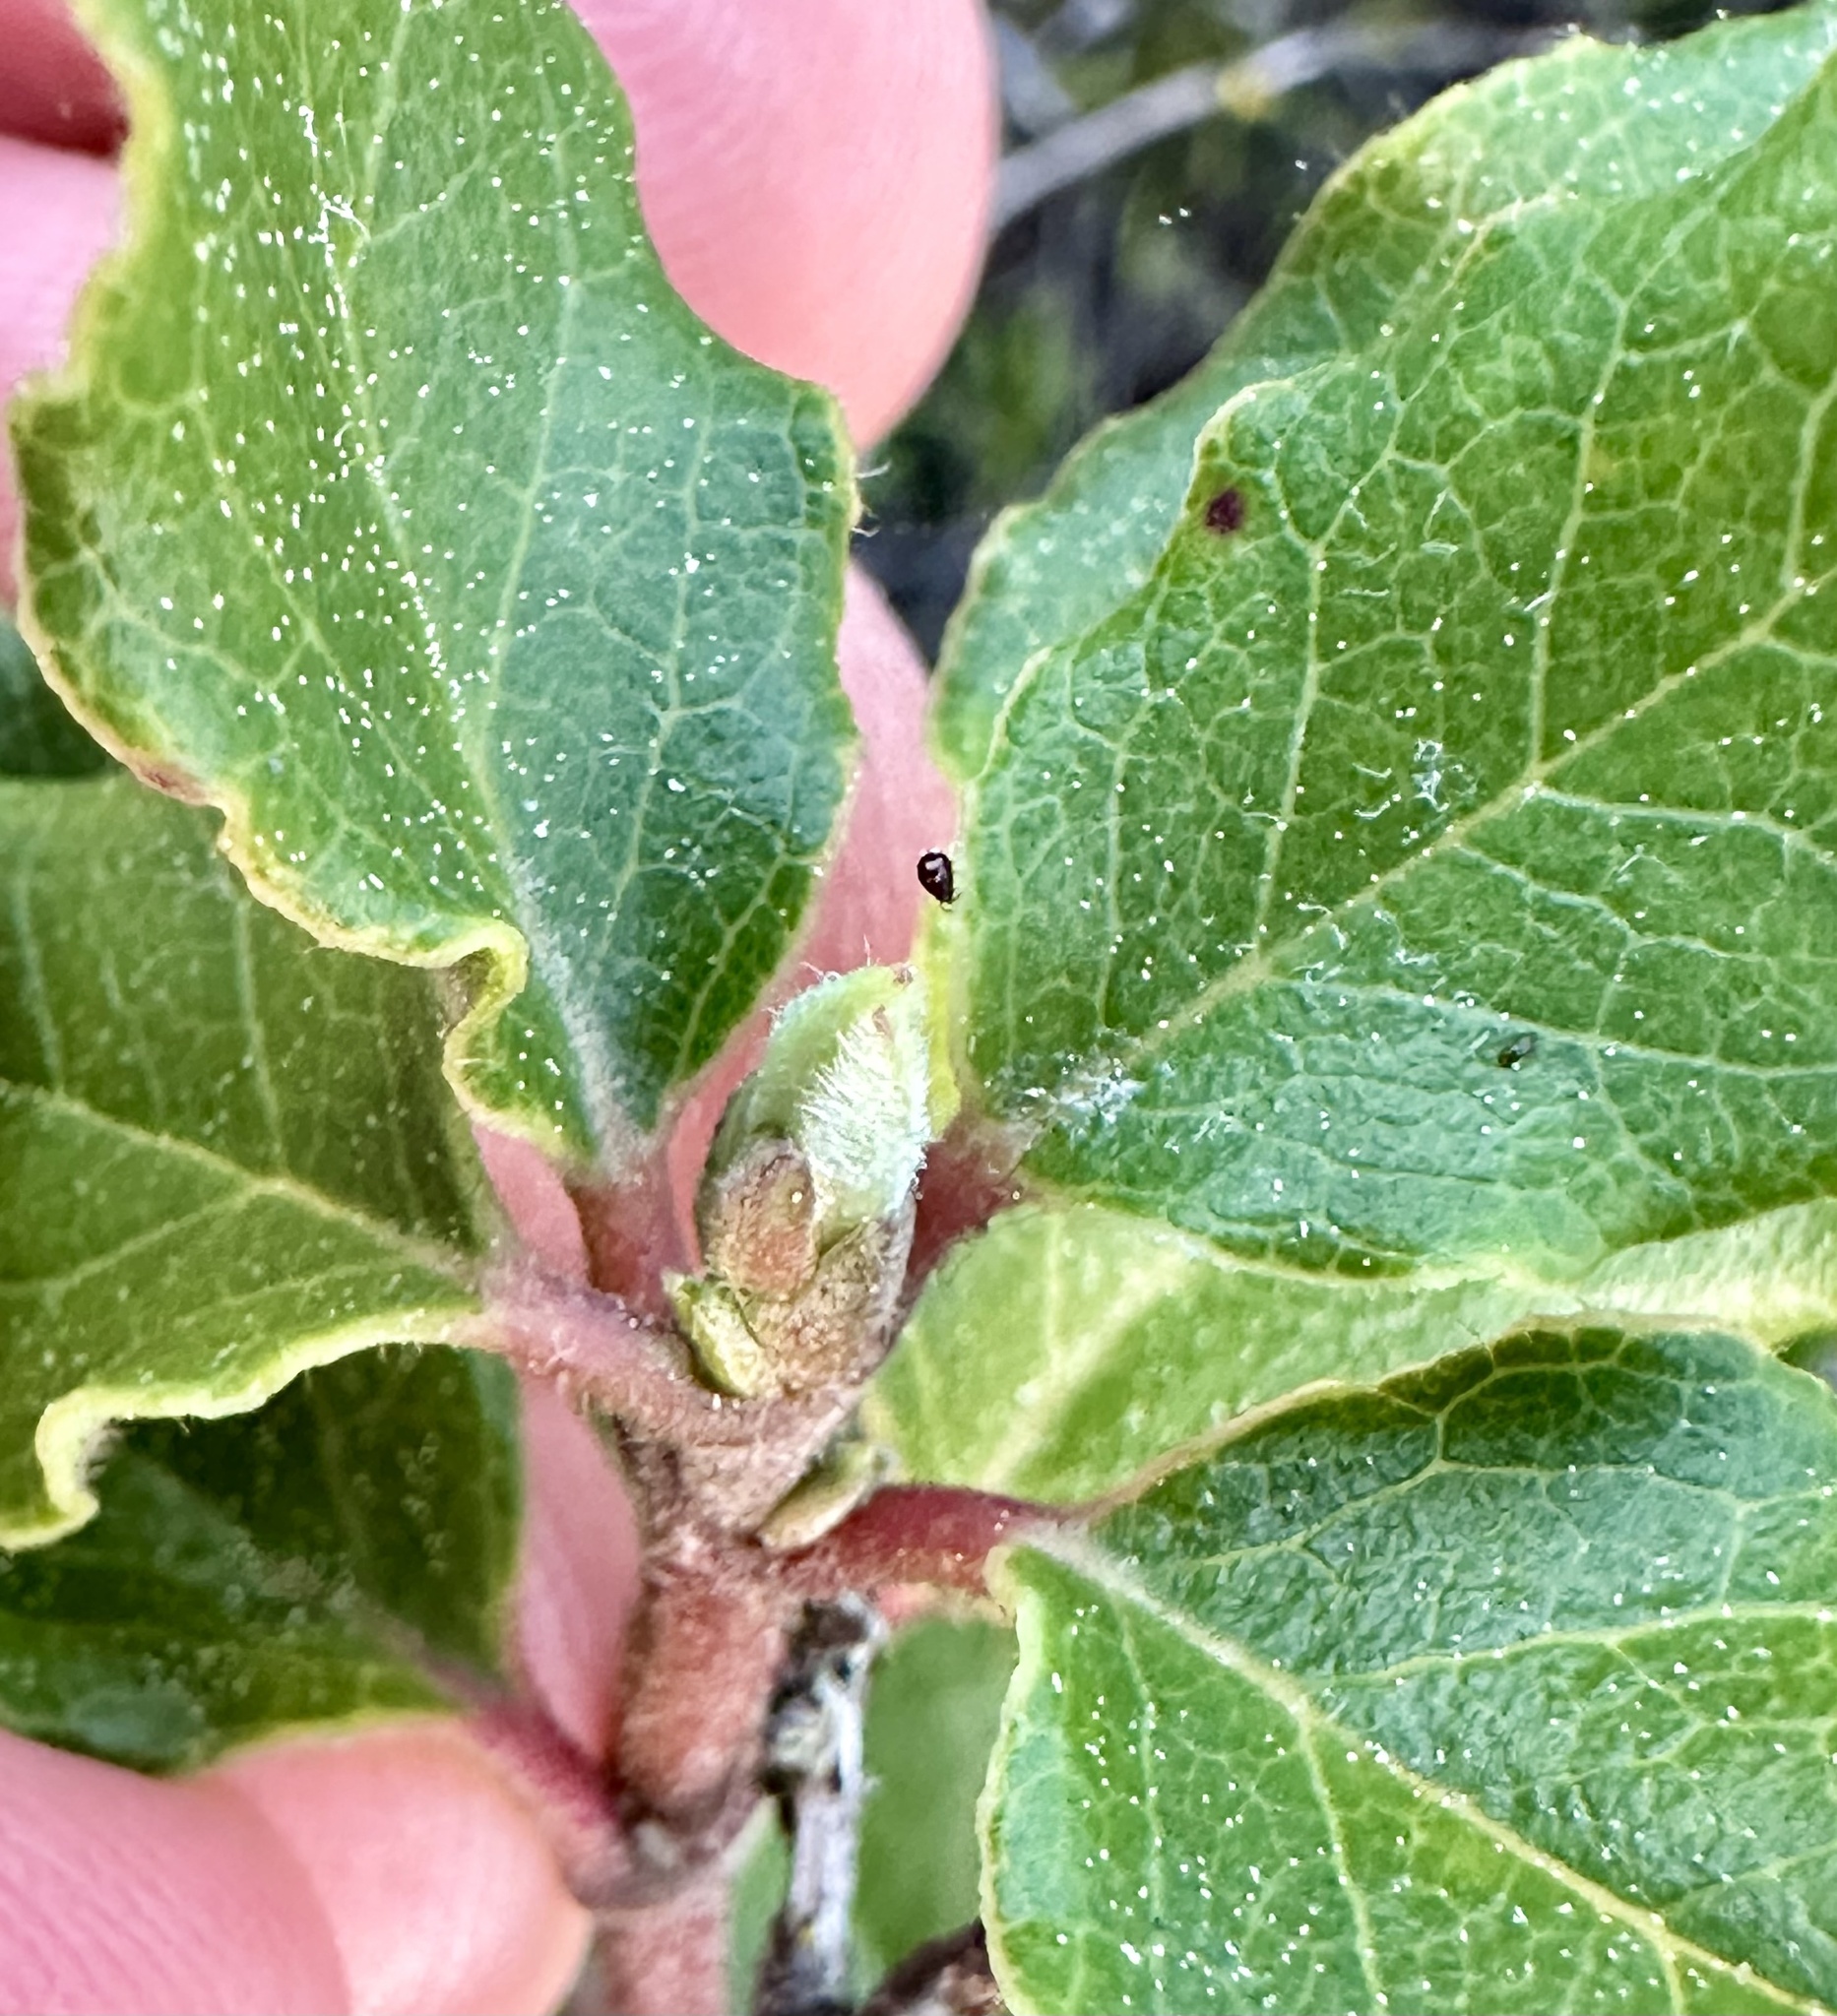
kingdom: Plantae
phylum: Tracheophyta
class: Magnoliopsida
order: Garryales
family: Garryaceae
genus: Garrya
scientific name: Garrya elliptica
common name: Silk-tassel
